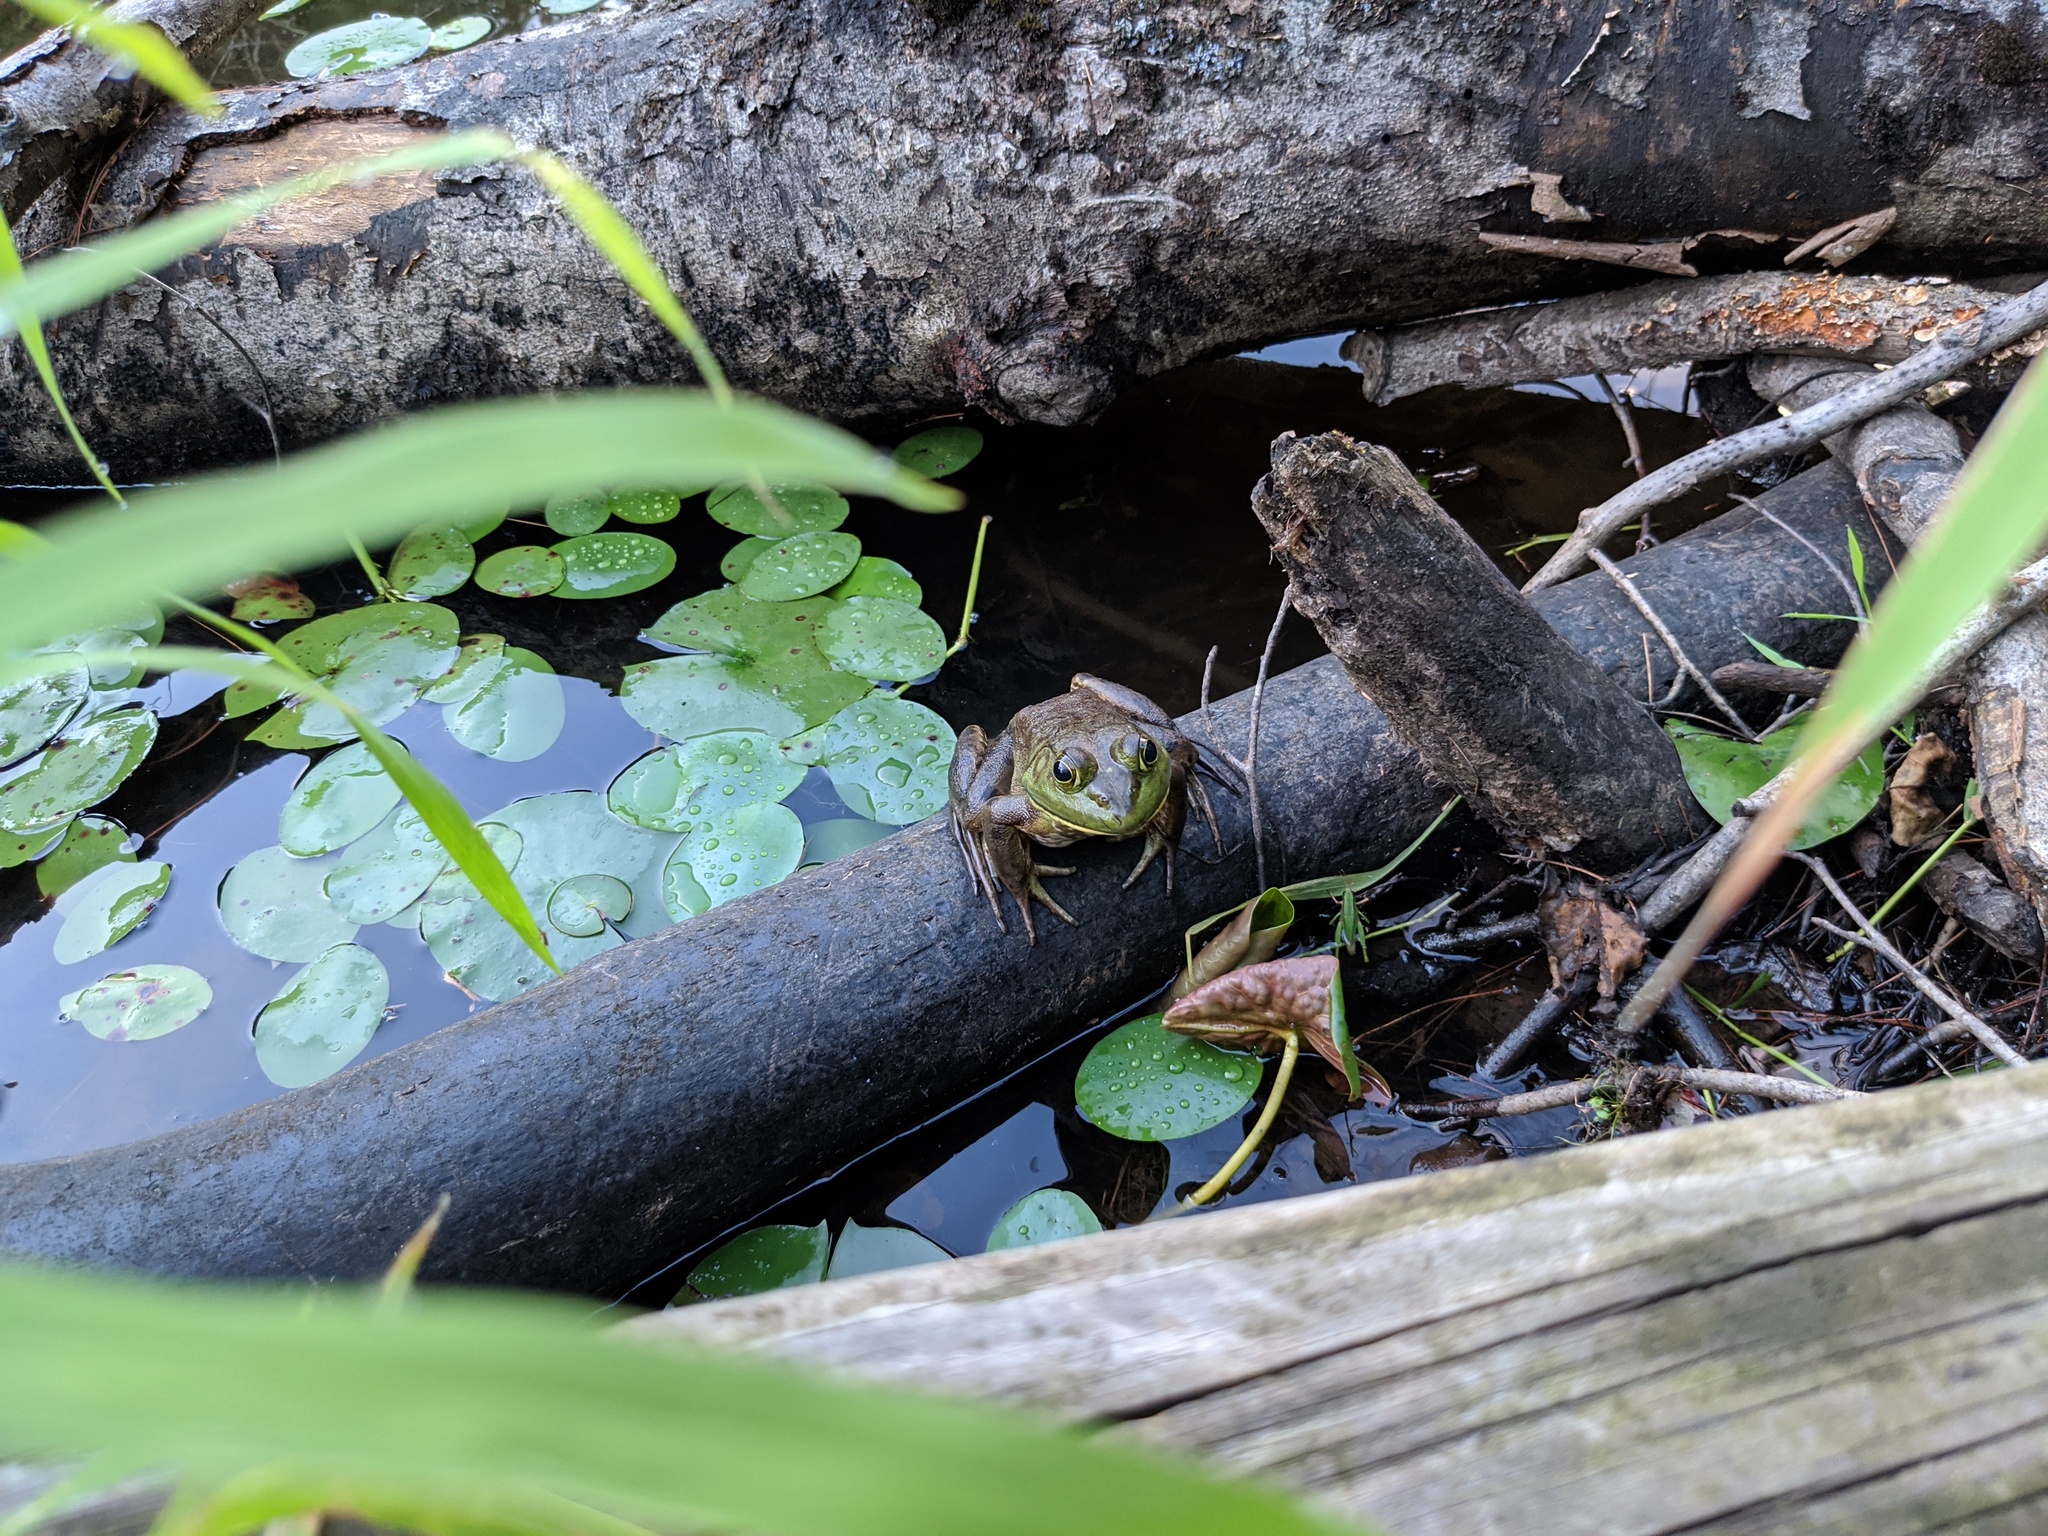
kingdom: Animalia
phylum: Chordata
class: Amphibia
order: Anura
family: Ranidae
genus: Lithobates
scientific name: Lithobates catesbeianus
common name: American bullfrog
